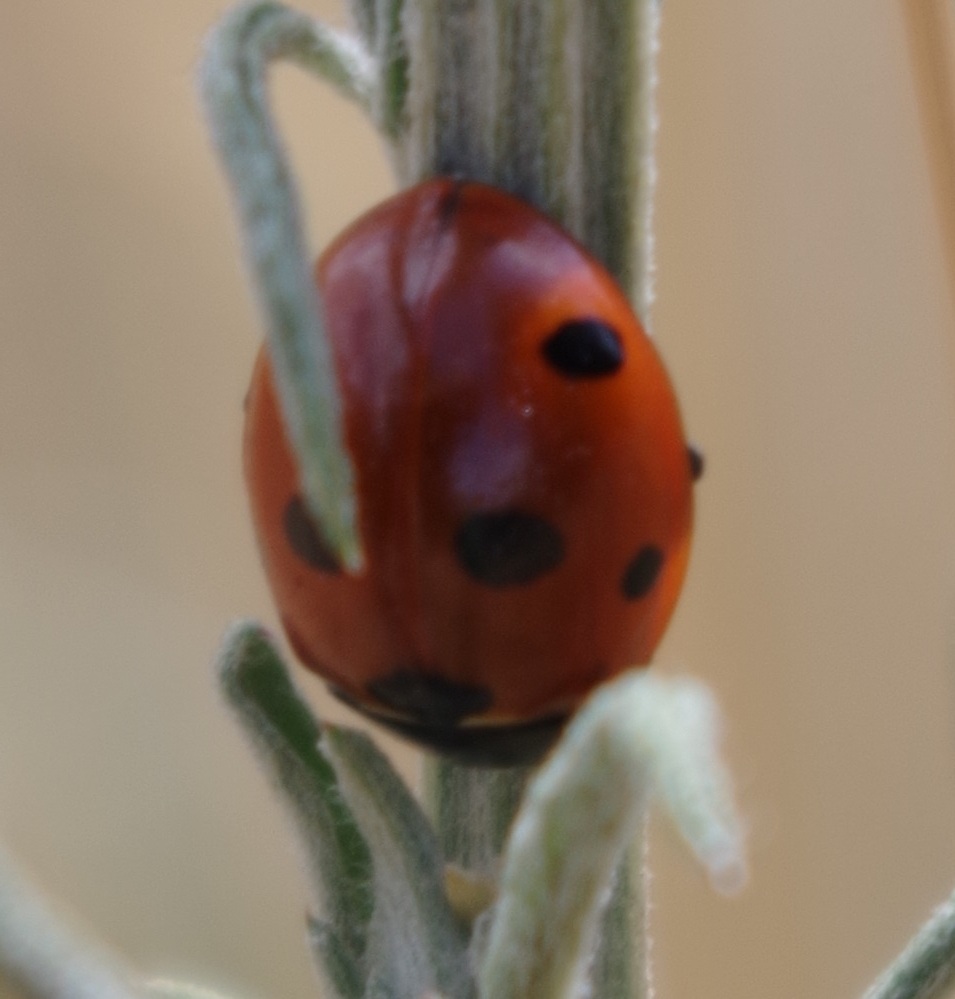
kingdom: Animalia
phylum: Arthropoda
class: Insecta
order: Coleoptera
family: Coccinellidae
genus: Coccinella
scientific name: Coccinella septempunctata
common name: Sevenspotted lady beetle
